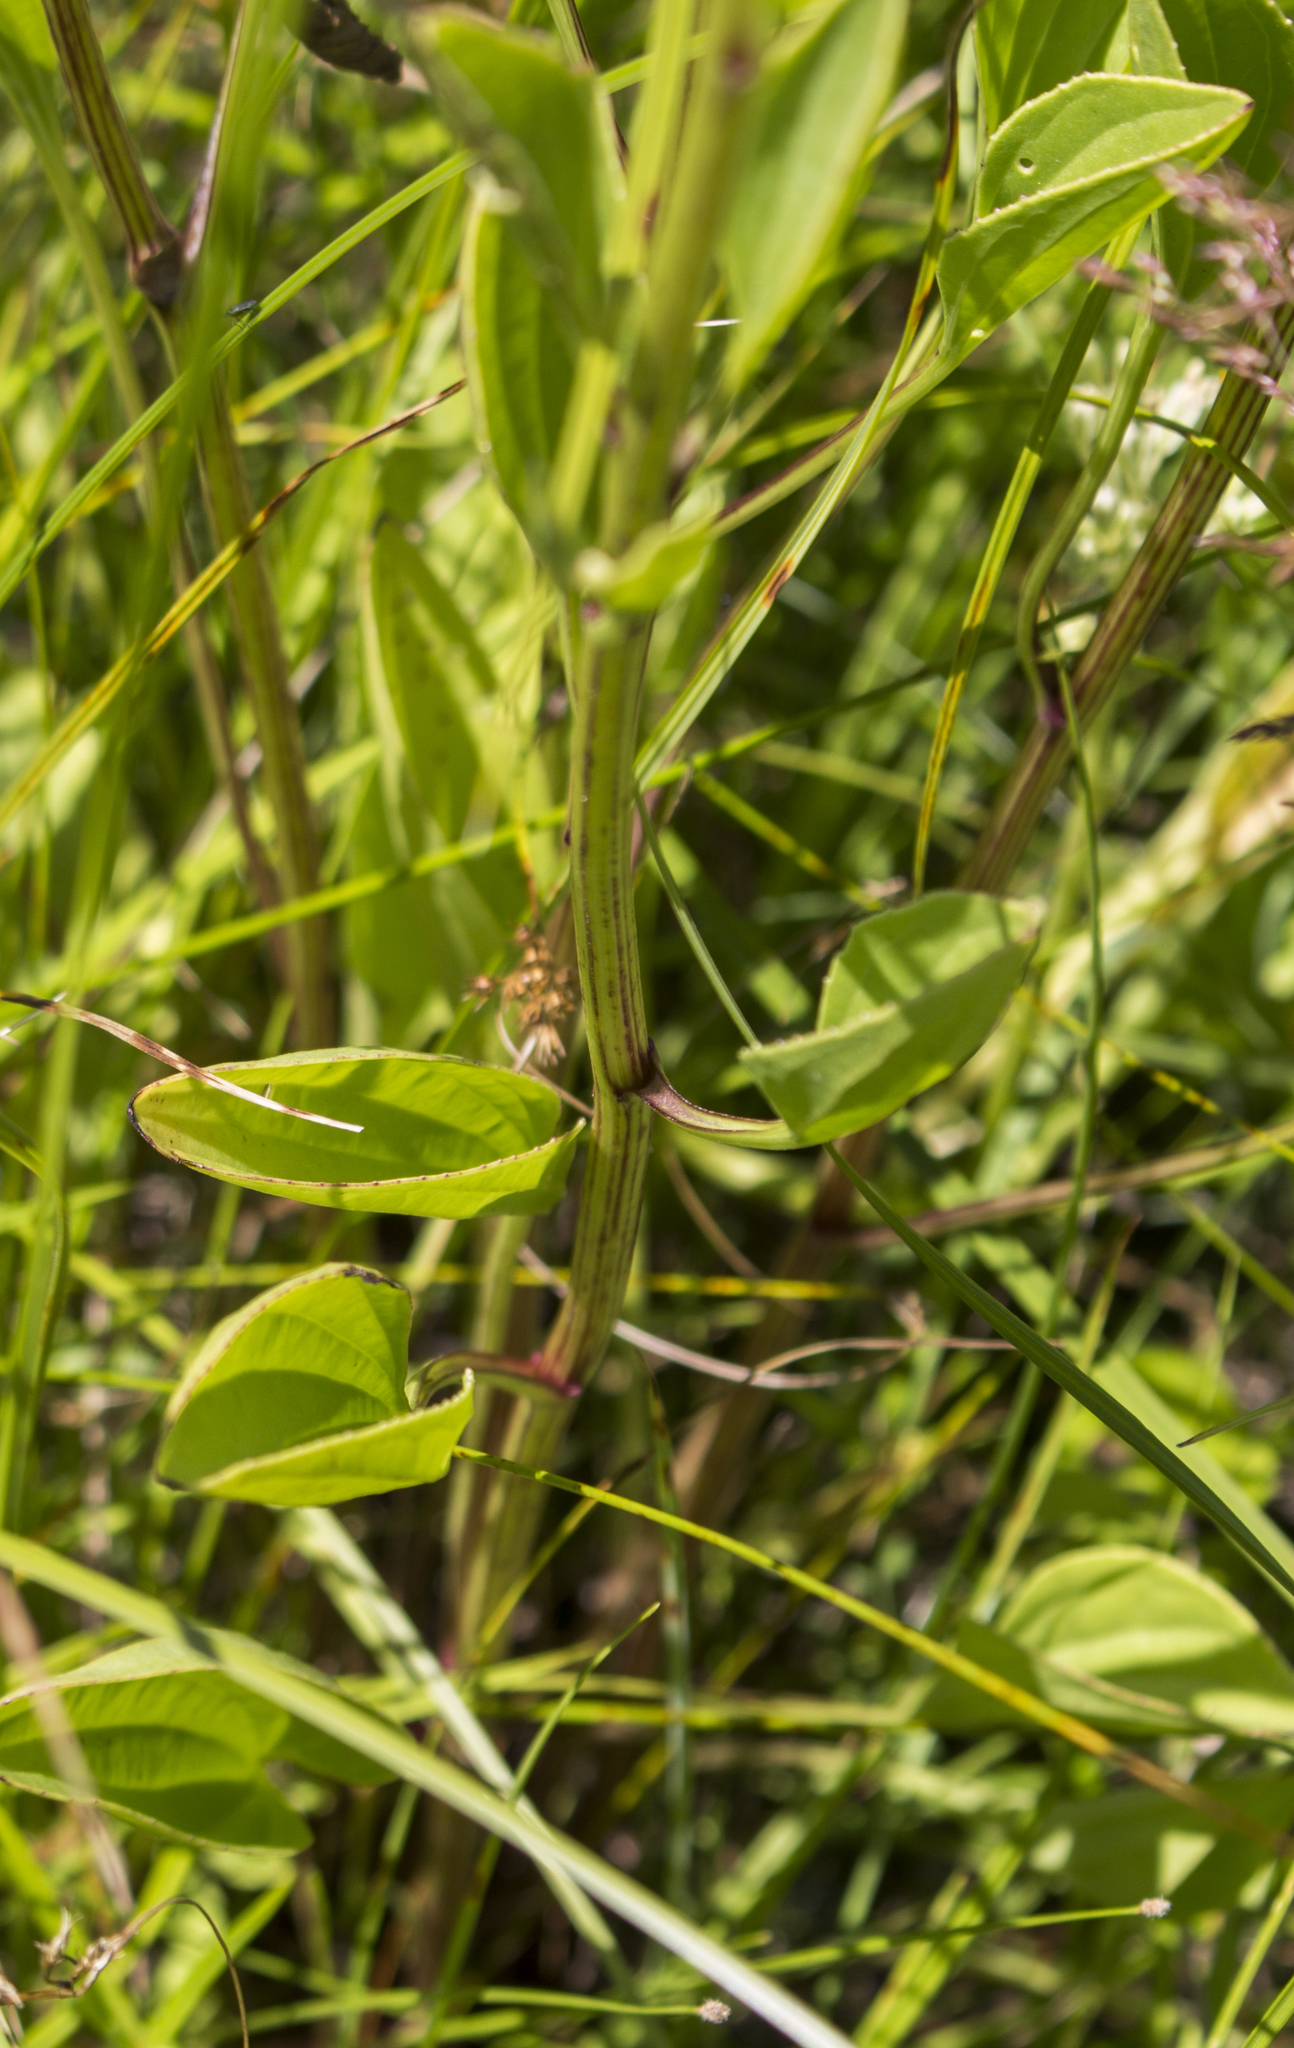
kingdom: Plantae
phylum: Tracheophyta
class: Magnoliopsida
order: Asterales
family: Asteraceae
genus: Arnoglossum
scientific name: Arnoglossum plantagineum
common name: Groove-stemmed indian-plantain
